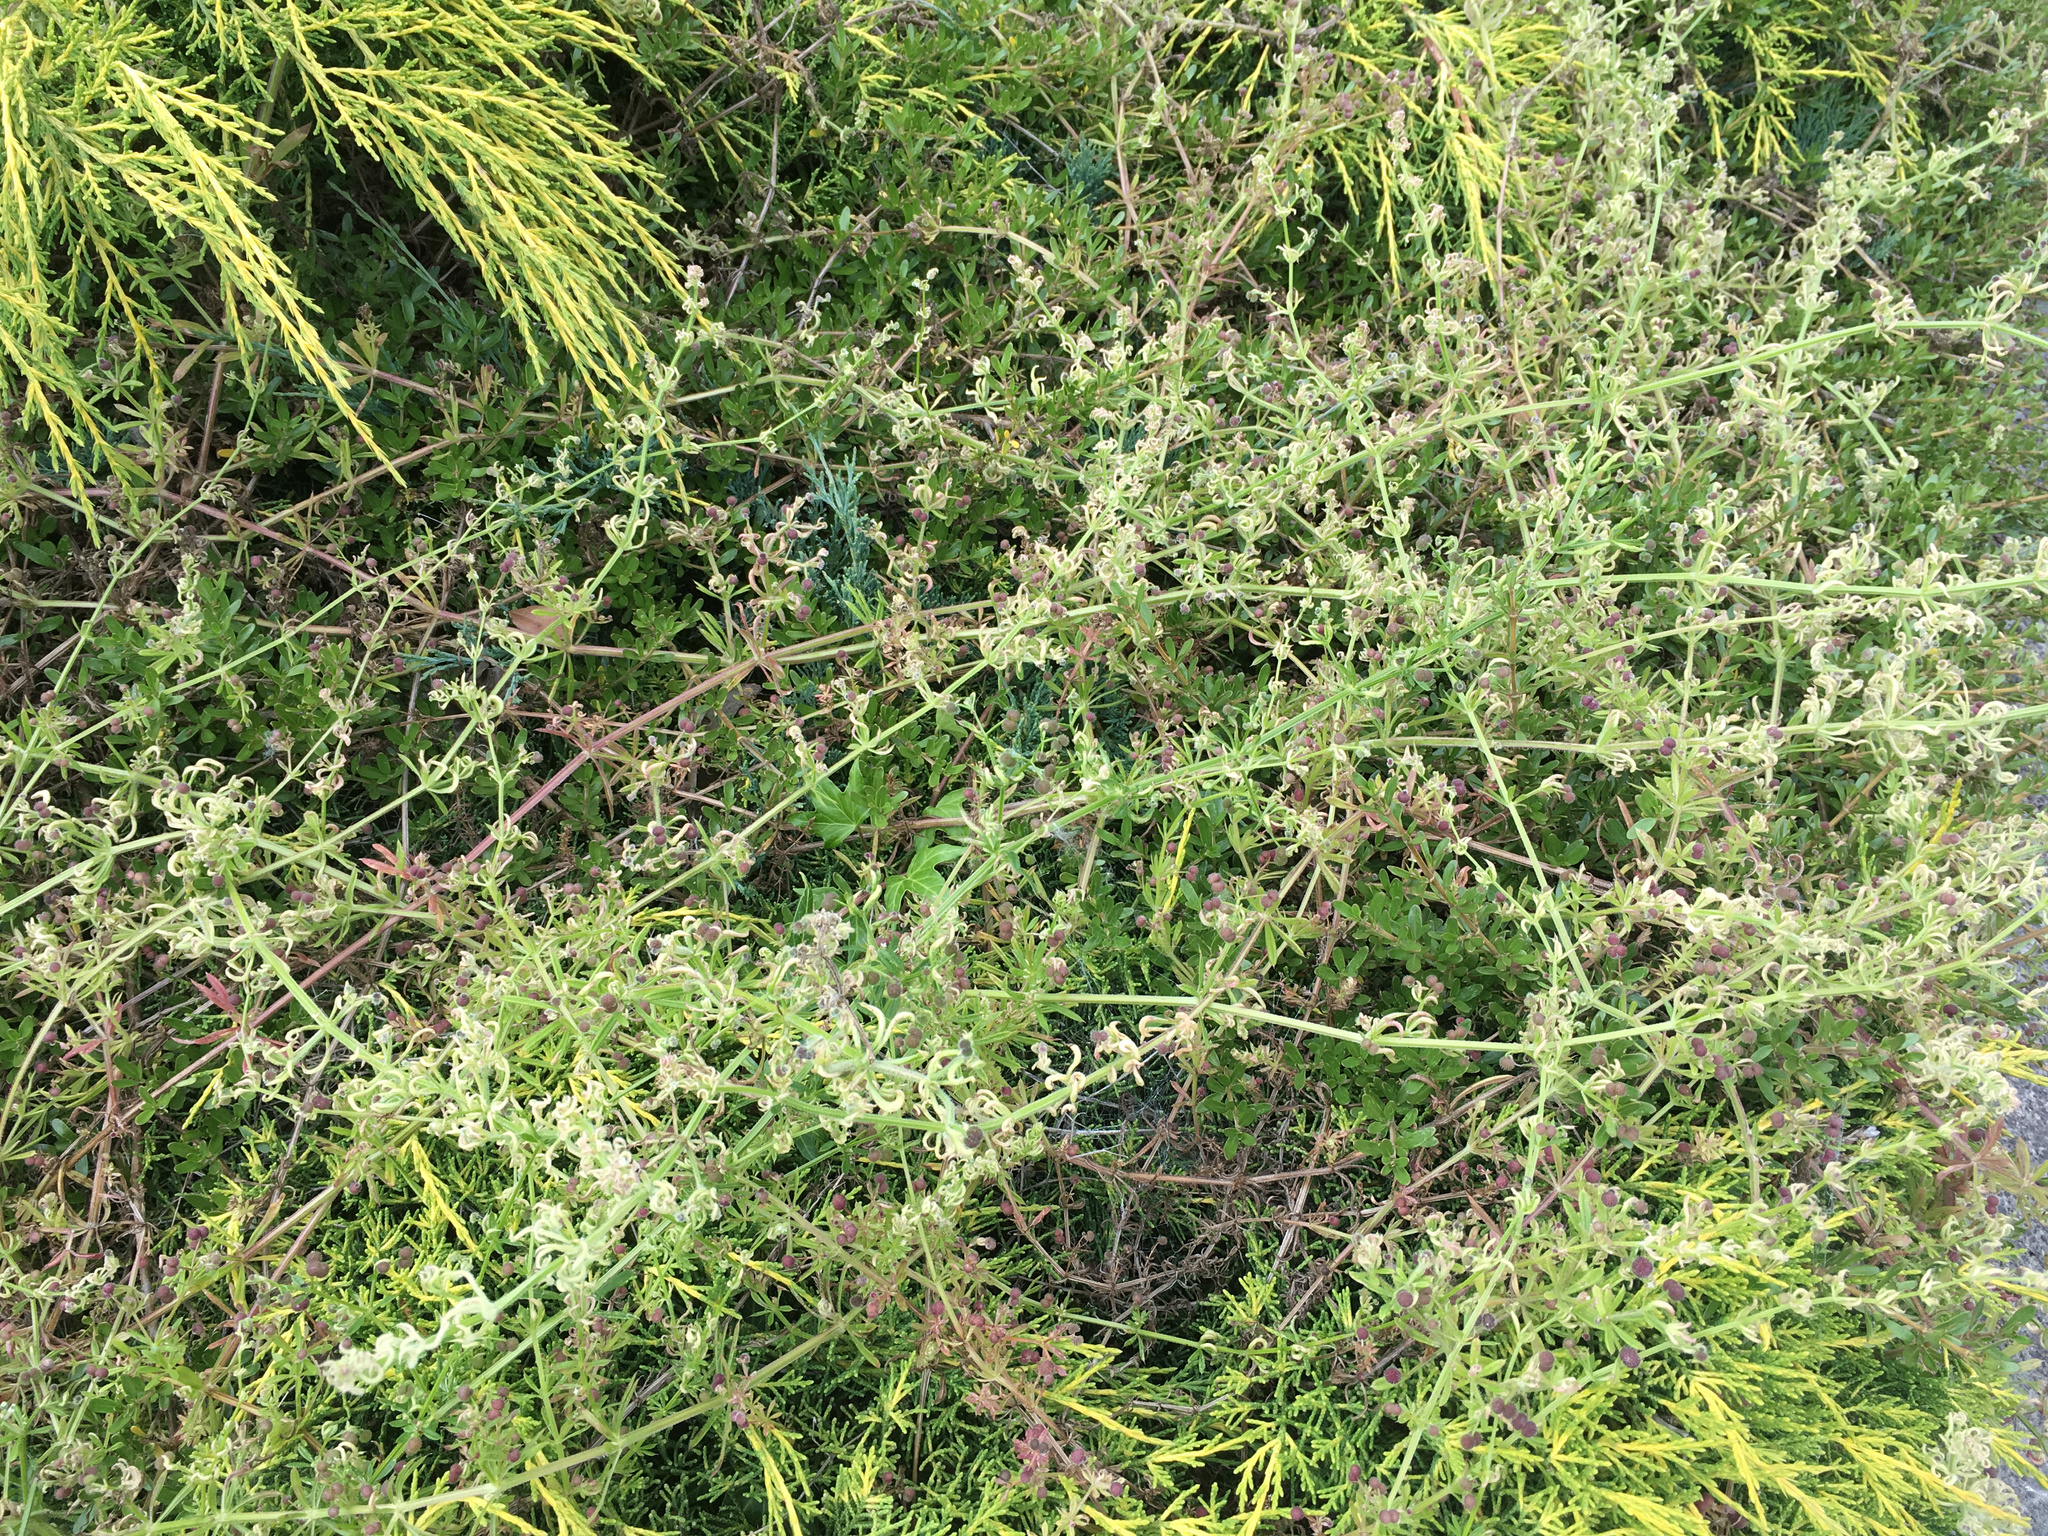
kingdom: Animalia
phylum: Arthropoda
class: Arachnida
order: Trombidiformes
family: Eriophyidae
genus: Cecidophyes
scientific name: Cecidophyes rouhollahi
